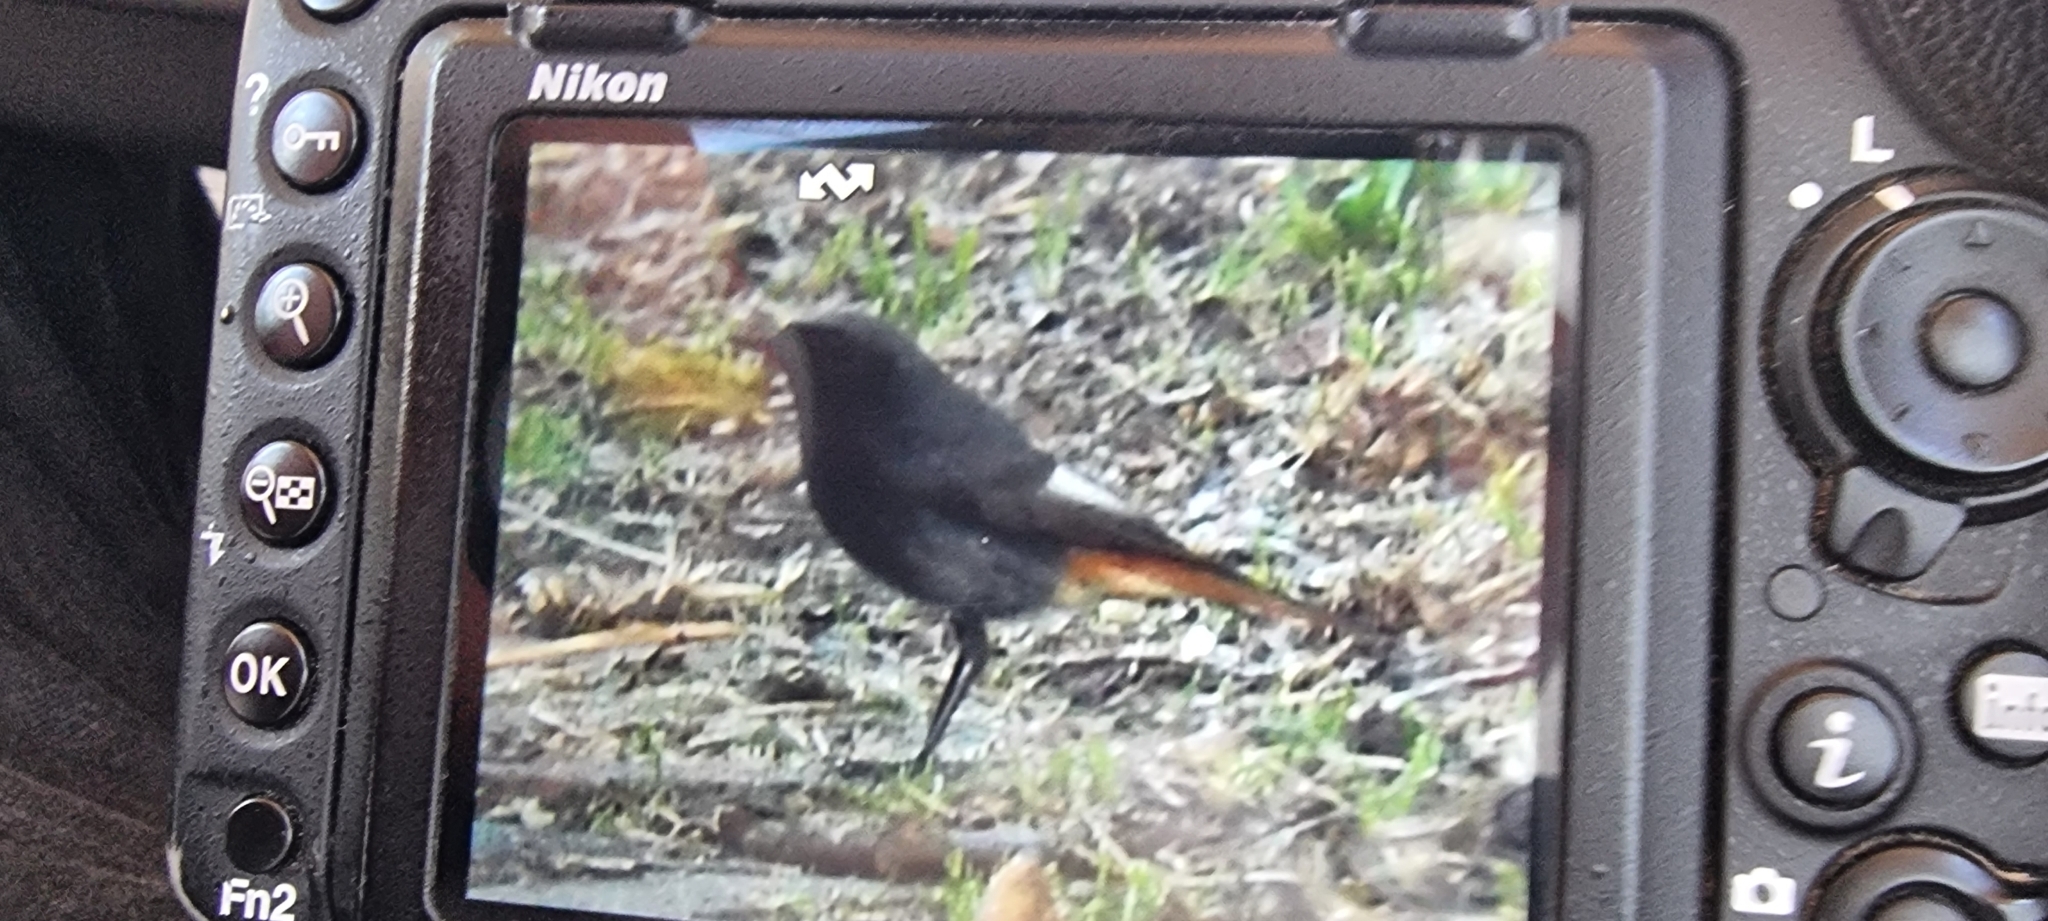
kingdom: Animalia
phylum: Chordata
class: Aves
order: Passeriformes
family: Muscicapidae
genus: Phoenicurus
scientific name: Phoenicurus ochruros
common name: Black redstart
